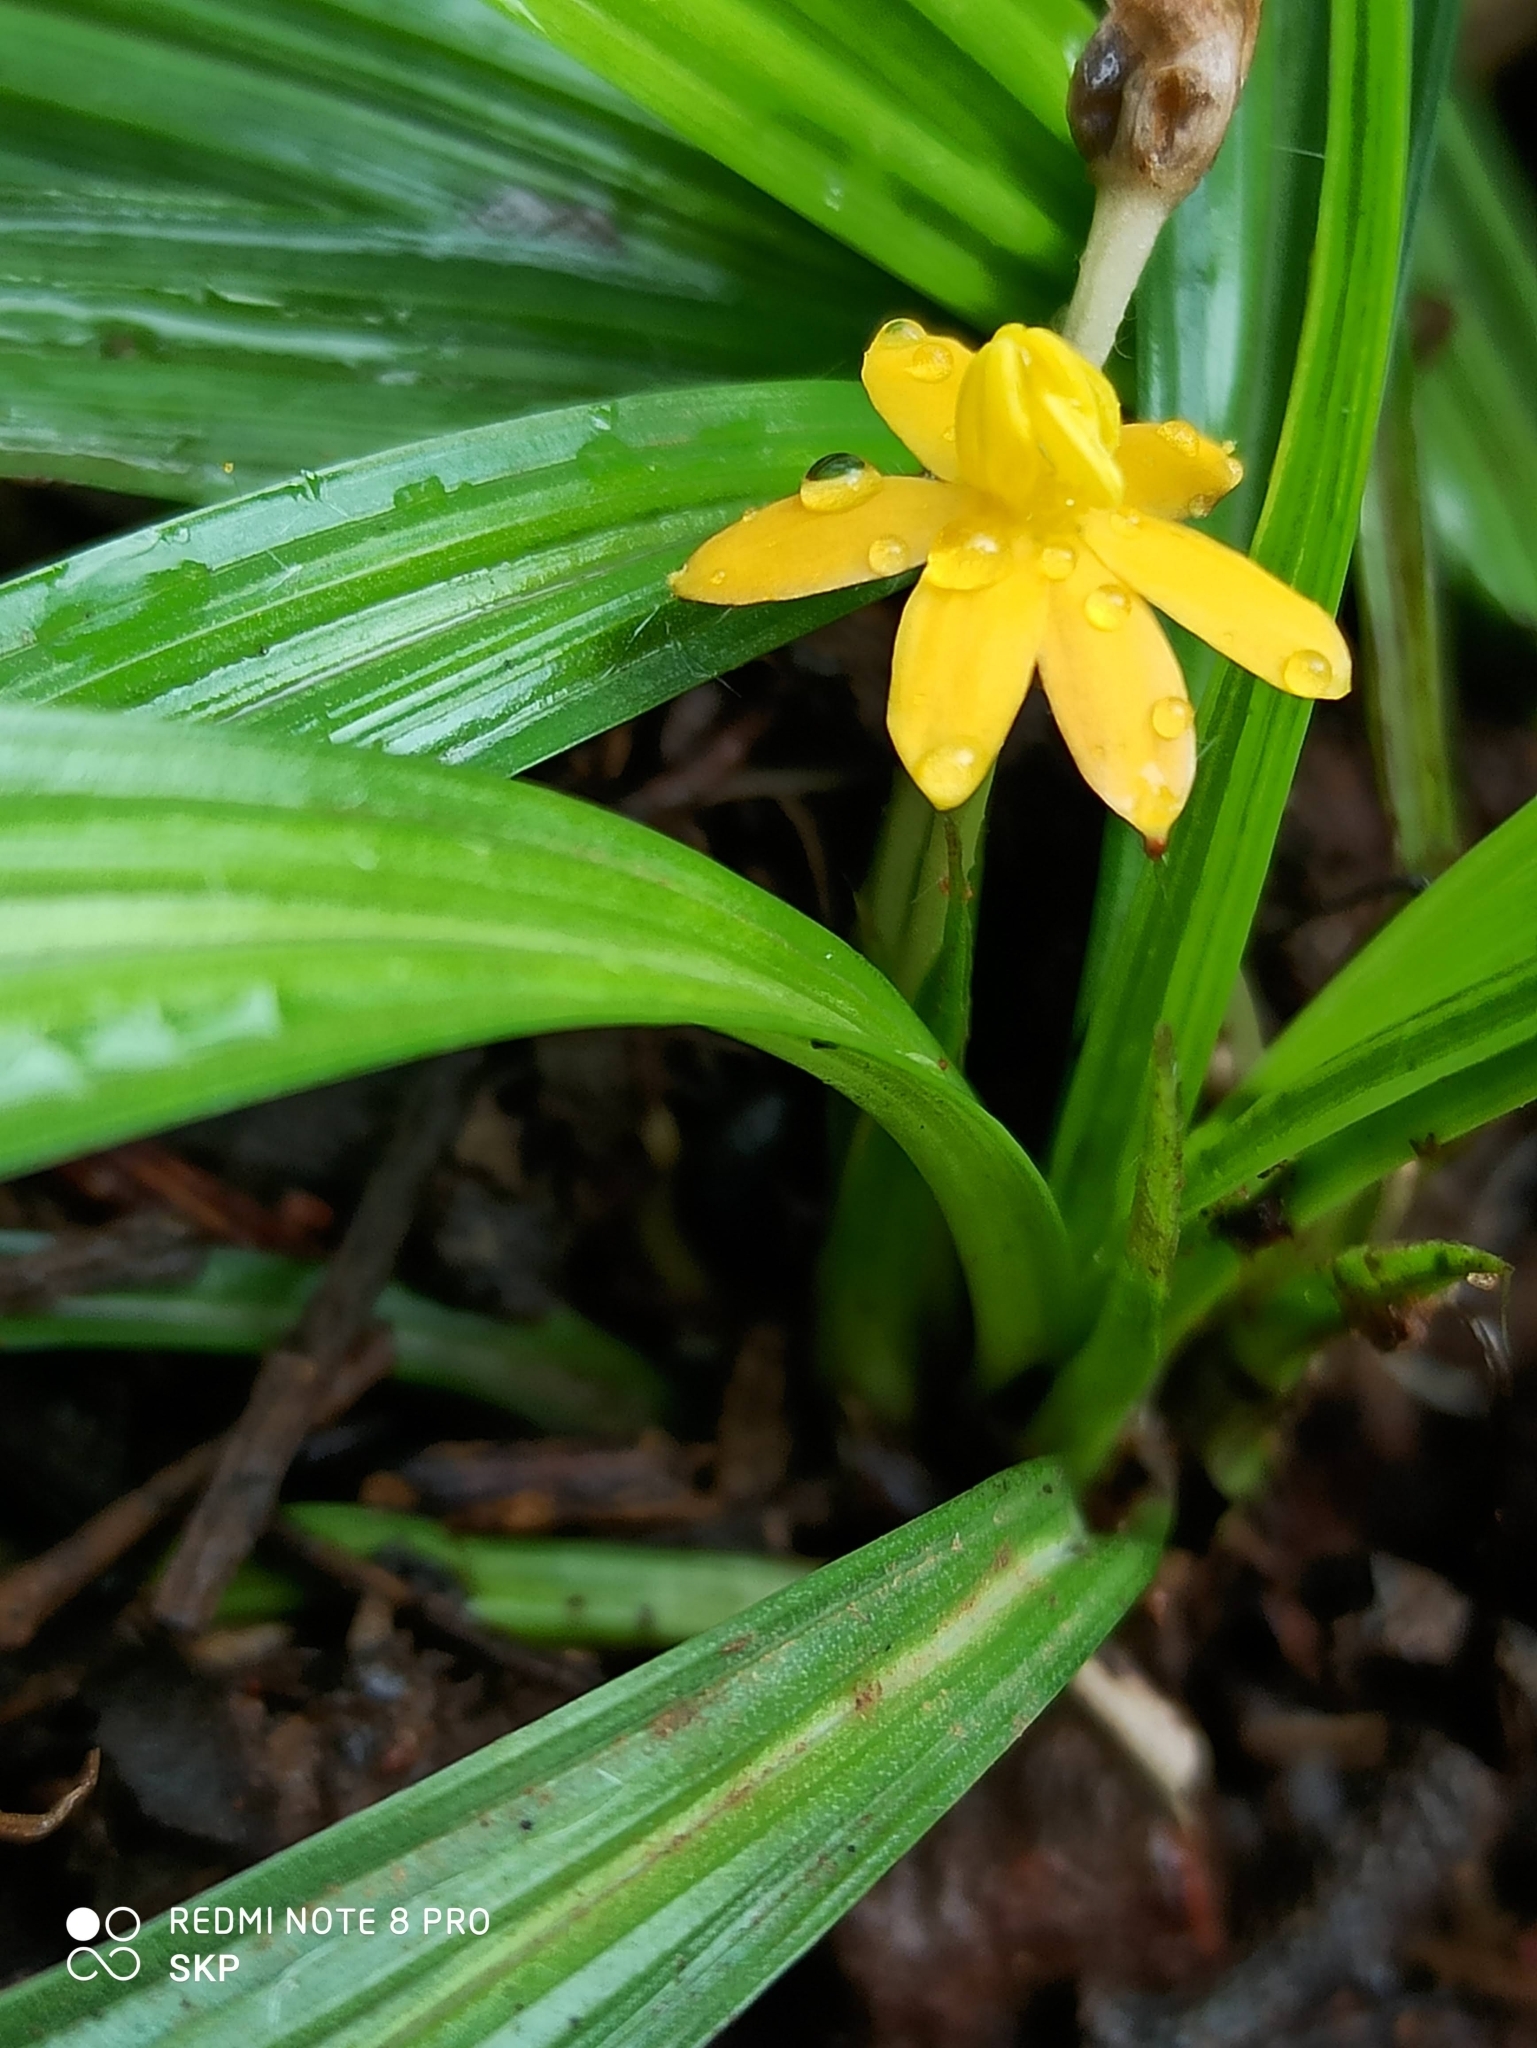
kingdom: Plantae
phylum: Tracheophyta
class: Liliopsida
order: Asparagales
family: Hypoxidaceae
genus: Curculigo
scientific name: Curculigo orchioides
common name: Golden eye-grass
